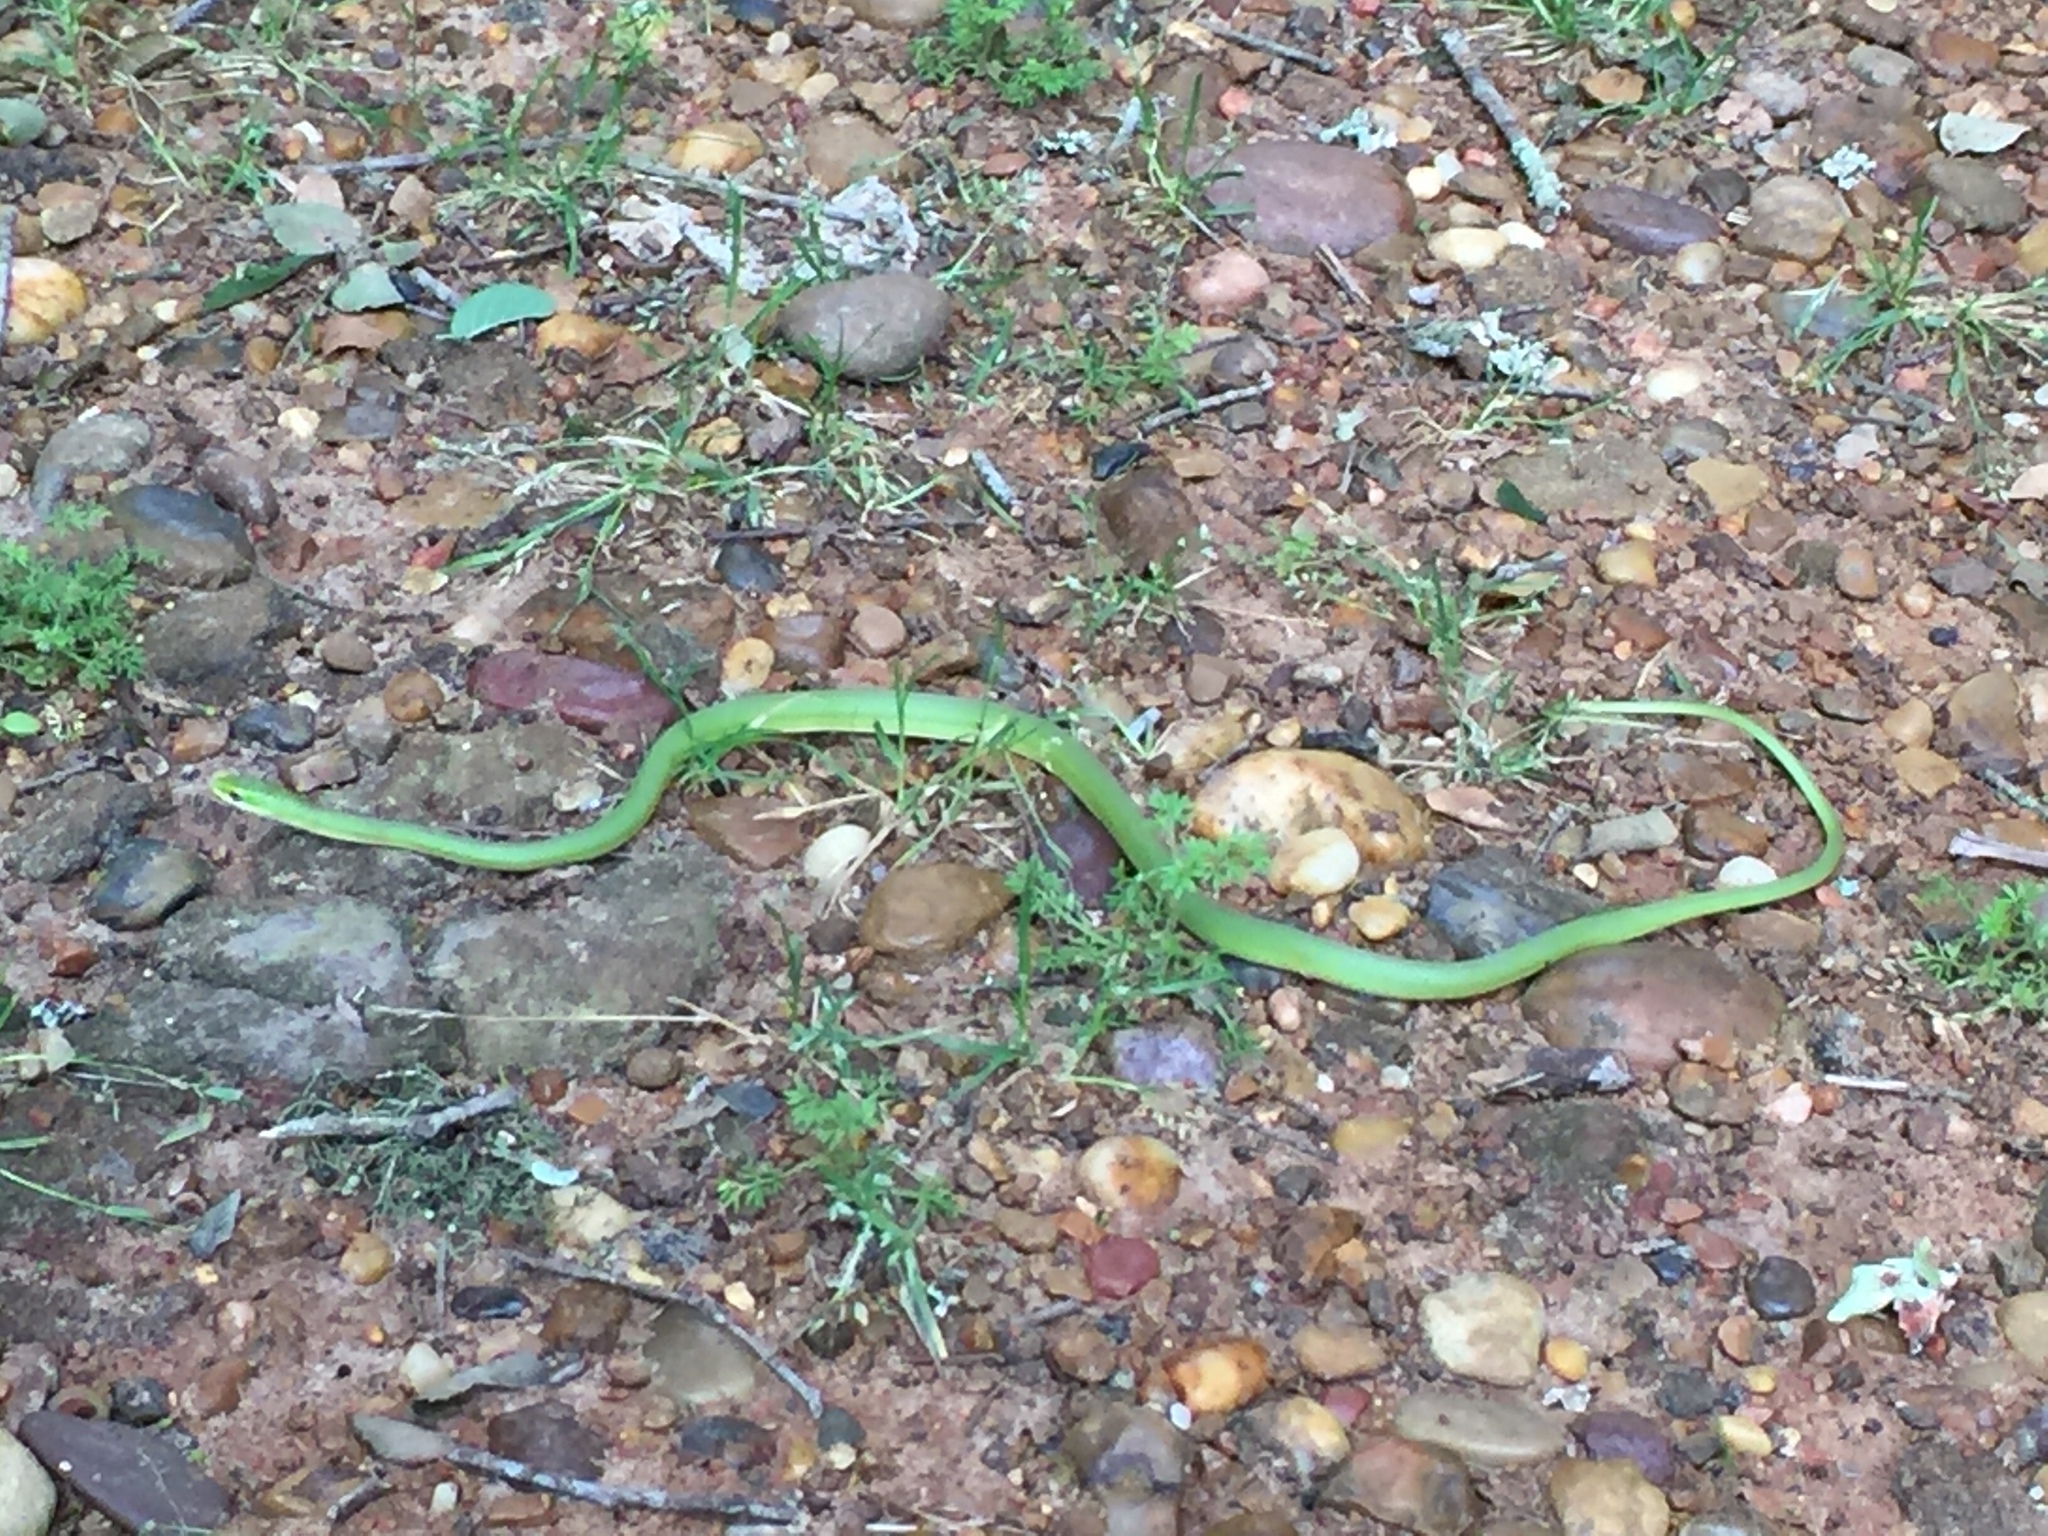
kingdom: Animalia
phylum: Chordata
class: Squamata
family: Colubridae
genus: Opheodrys
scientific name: Opheodrys aestivus
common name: Rough greensnake
